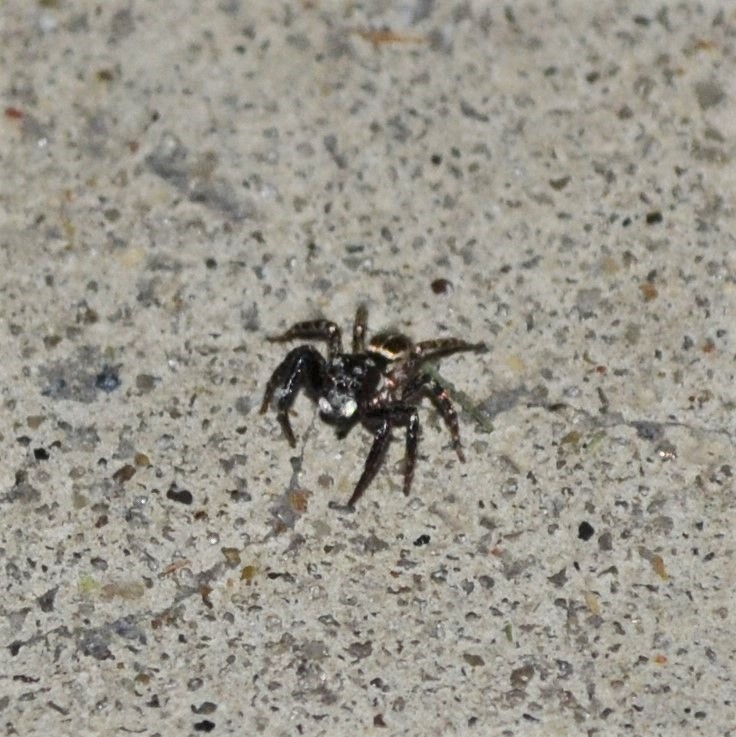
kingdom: Animalia
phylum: Arthropoda
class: Arachnida
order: Araneae
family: Salticidae
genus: Anasaitis
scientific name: Anasaitis canosa
